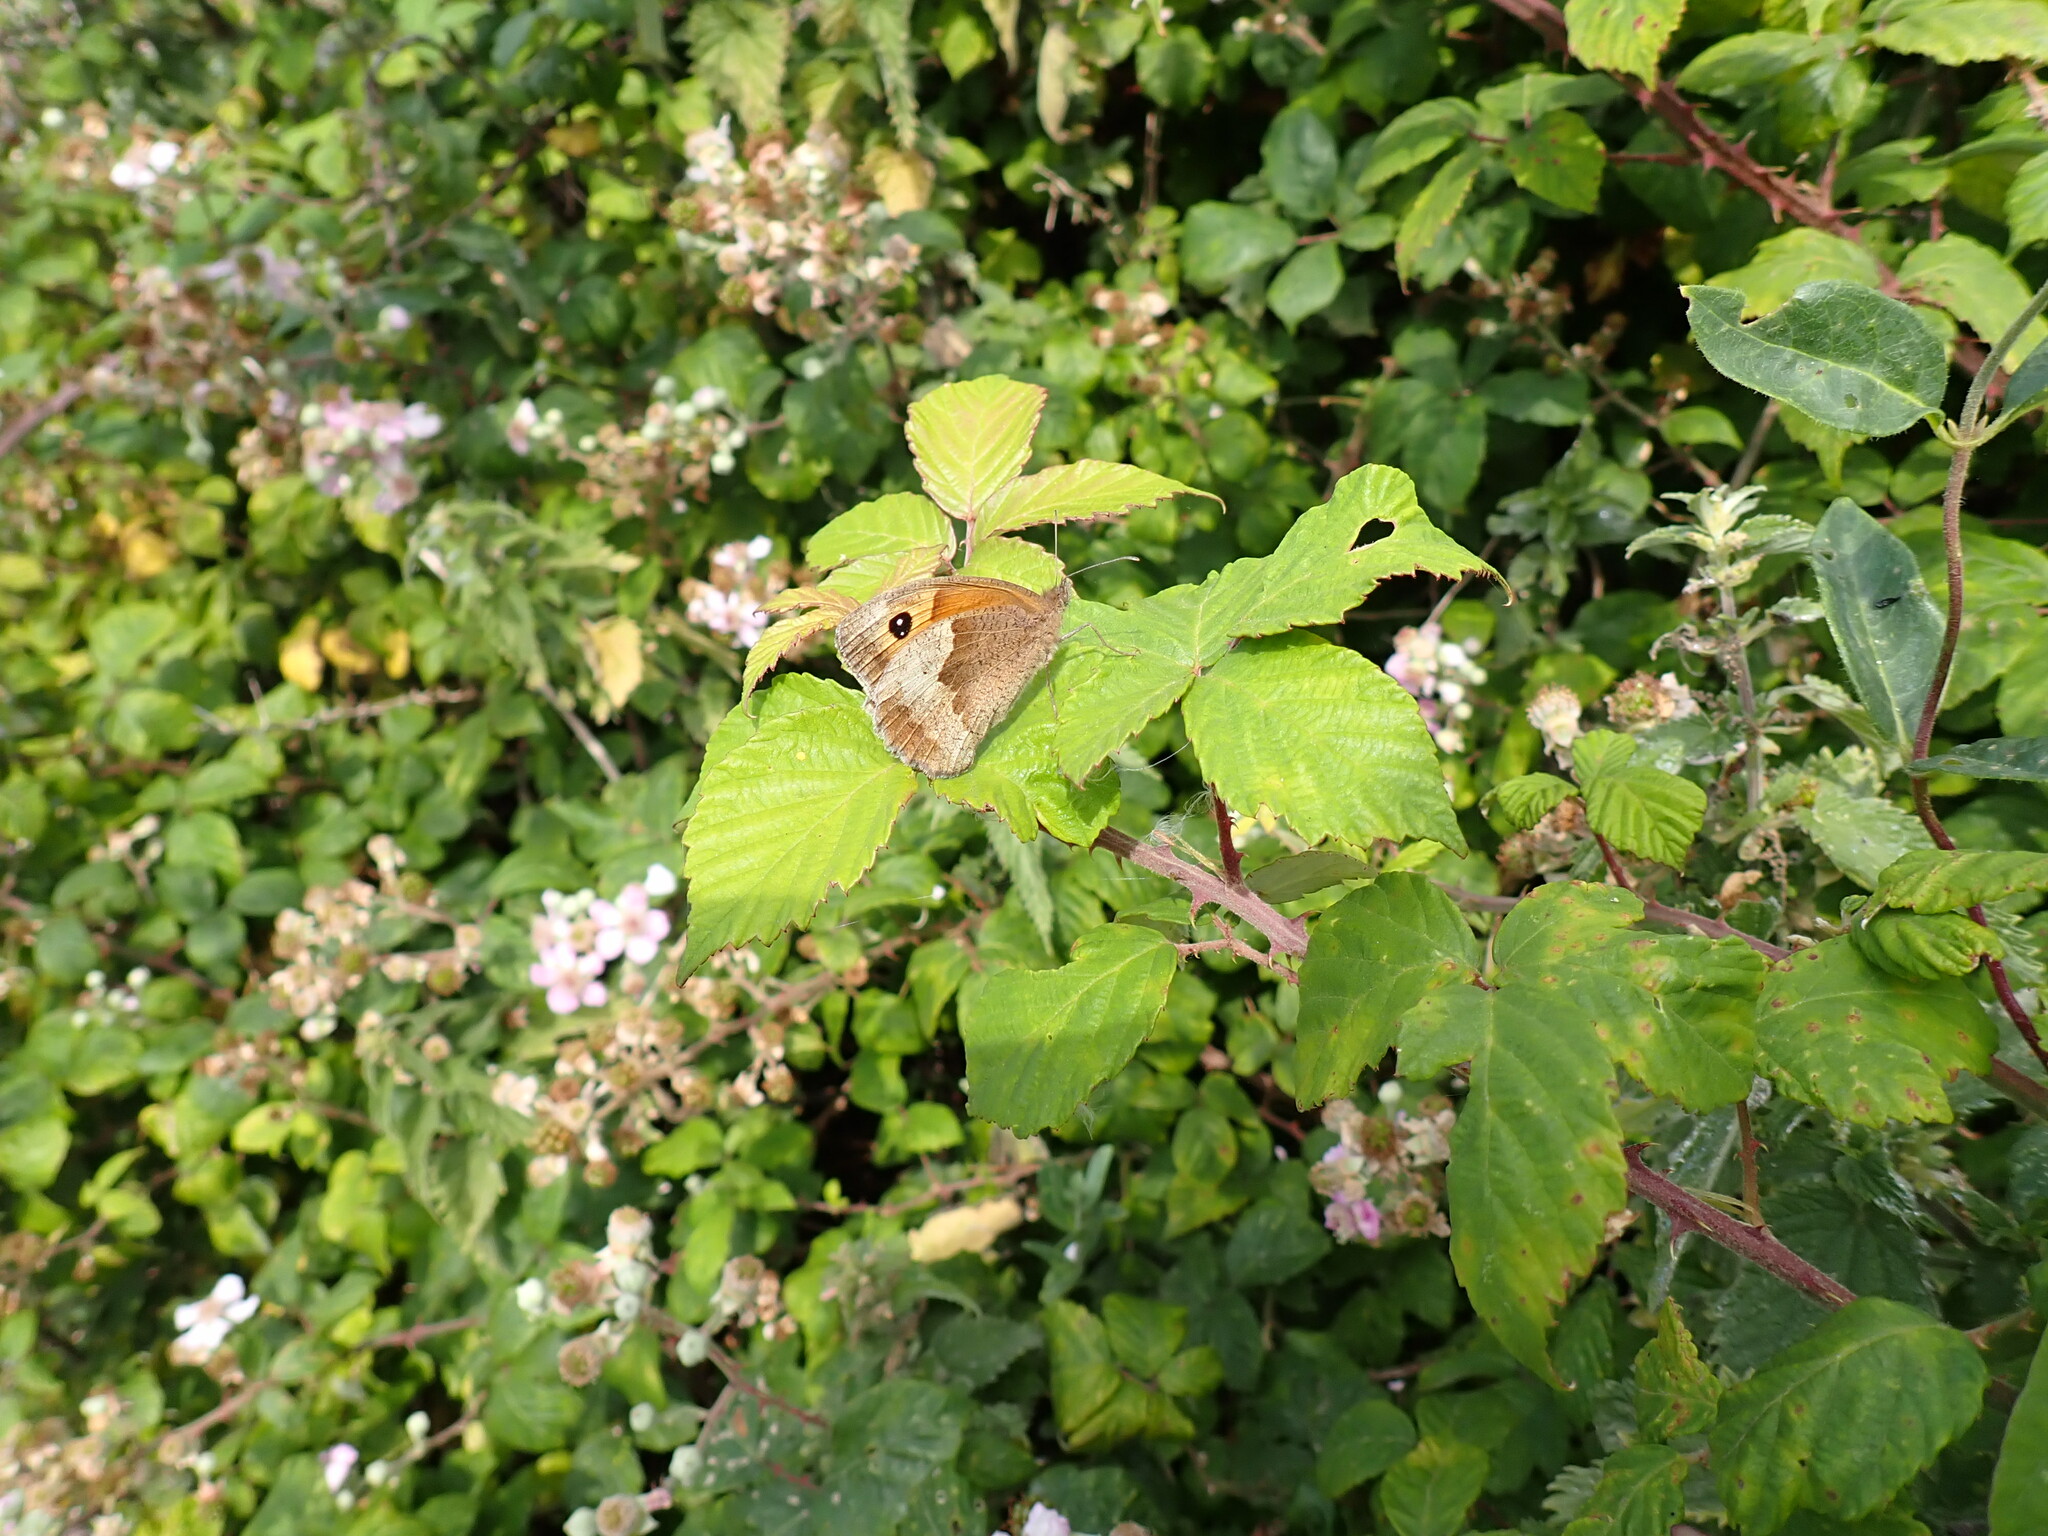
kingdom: Animalia
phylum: Arthropoda
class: Insecta
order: Lepidoptera
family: Nymphalidae
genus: Pyronia
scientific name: Pyronia tithonus
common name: Gatekeeper
